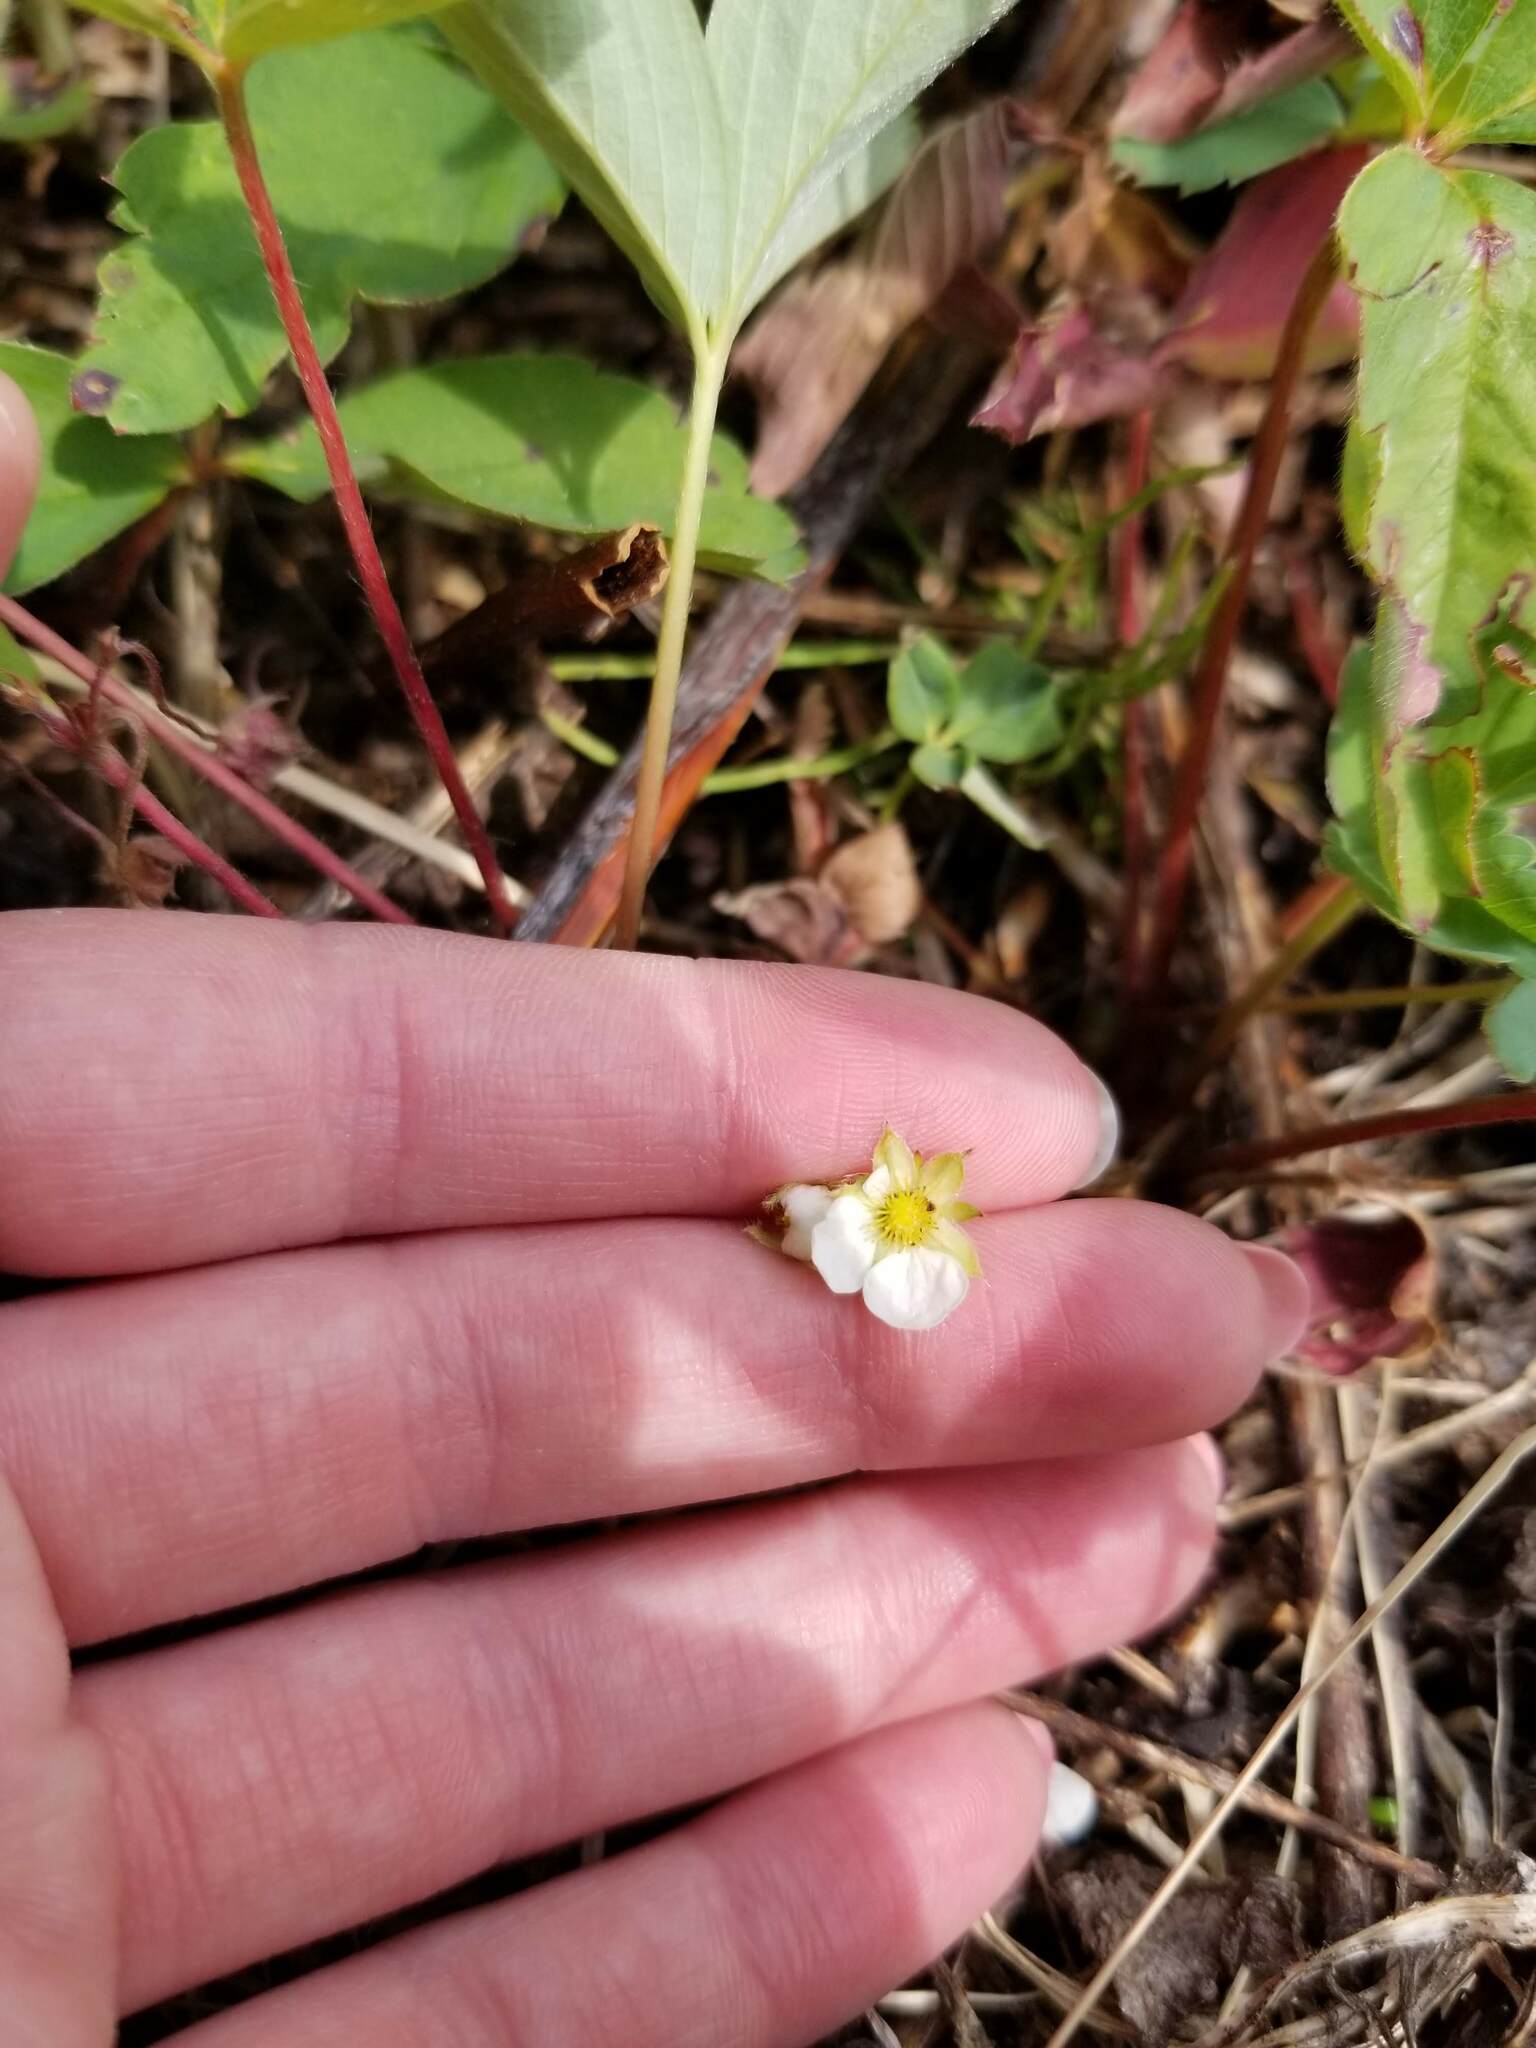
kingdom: Plantae
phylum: Tracheophyta
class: Magnoliopsida
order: Rosales
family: Rosaceae
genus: Fragaria
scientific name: Fragaria virginiana
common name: Thickleaved wild strawberry
